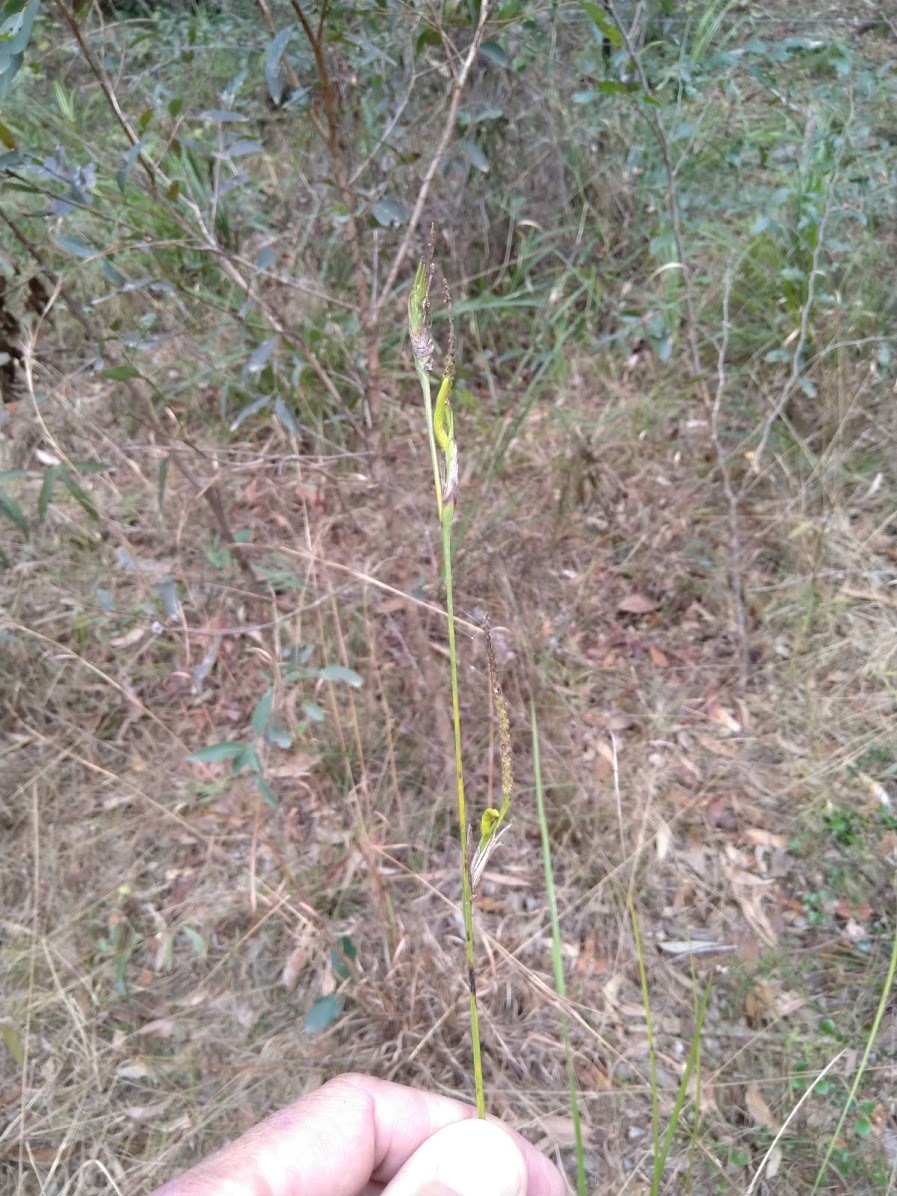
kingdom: Plantae
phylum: Tracheophyta
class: Liliopsida
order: Alismatales
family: Araceae
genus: Gymnostachys
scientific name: Gymnostachys anceps
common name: Settler's-flax
